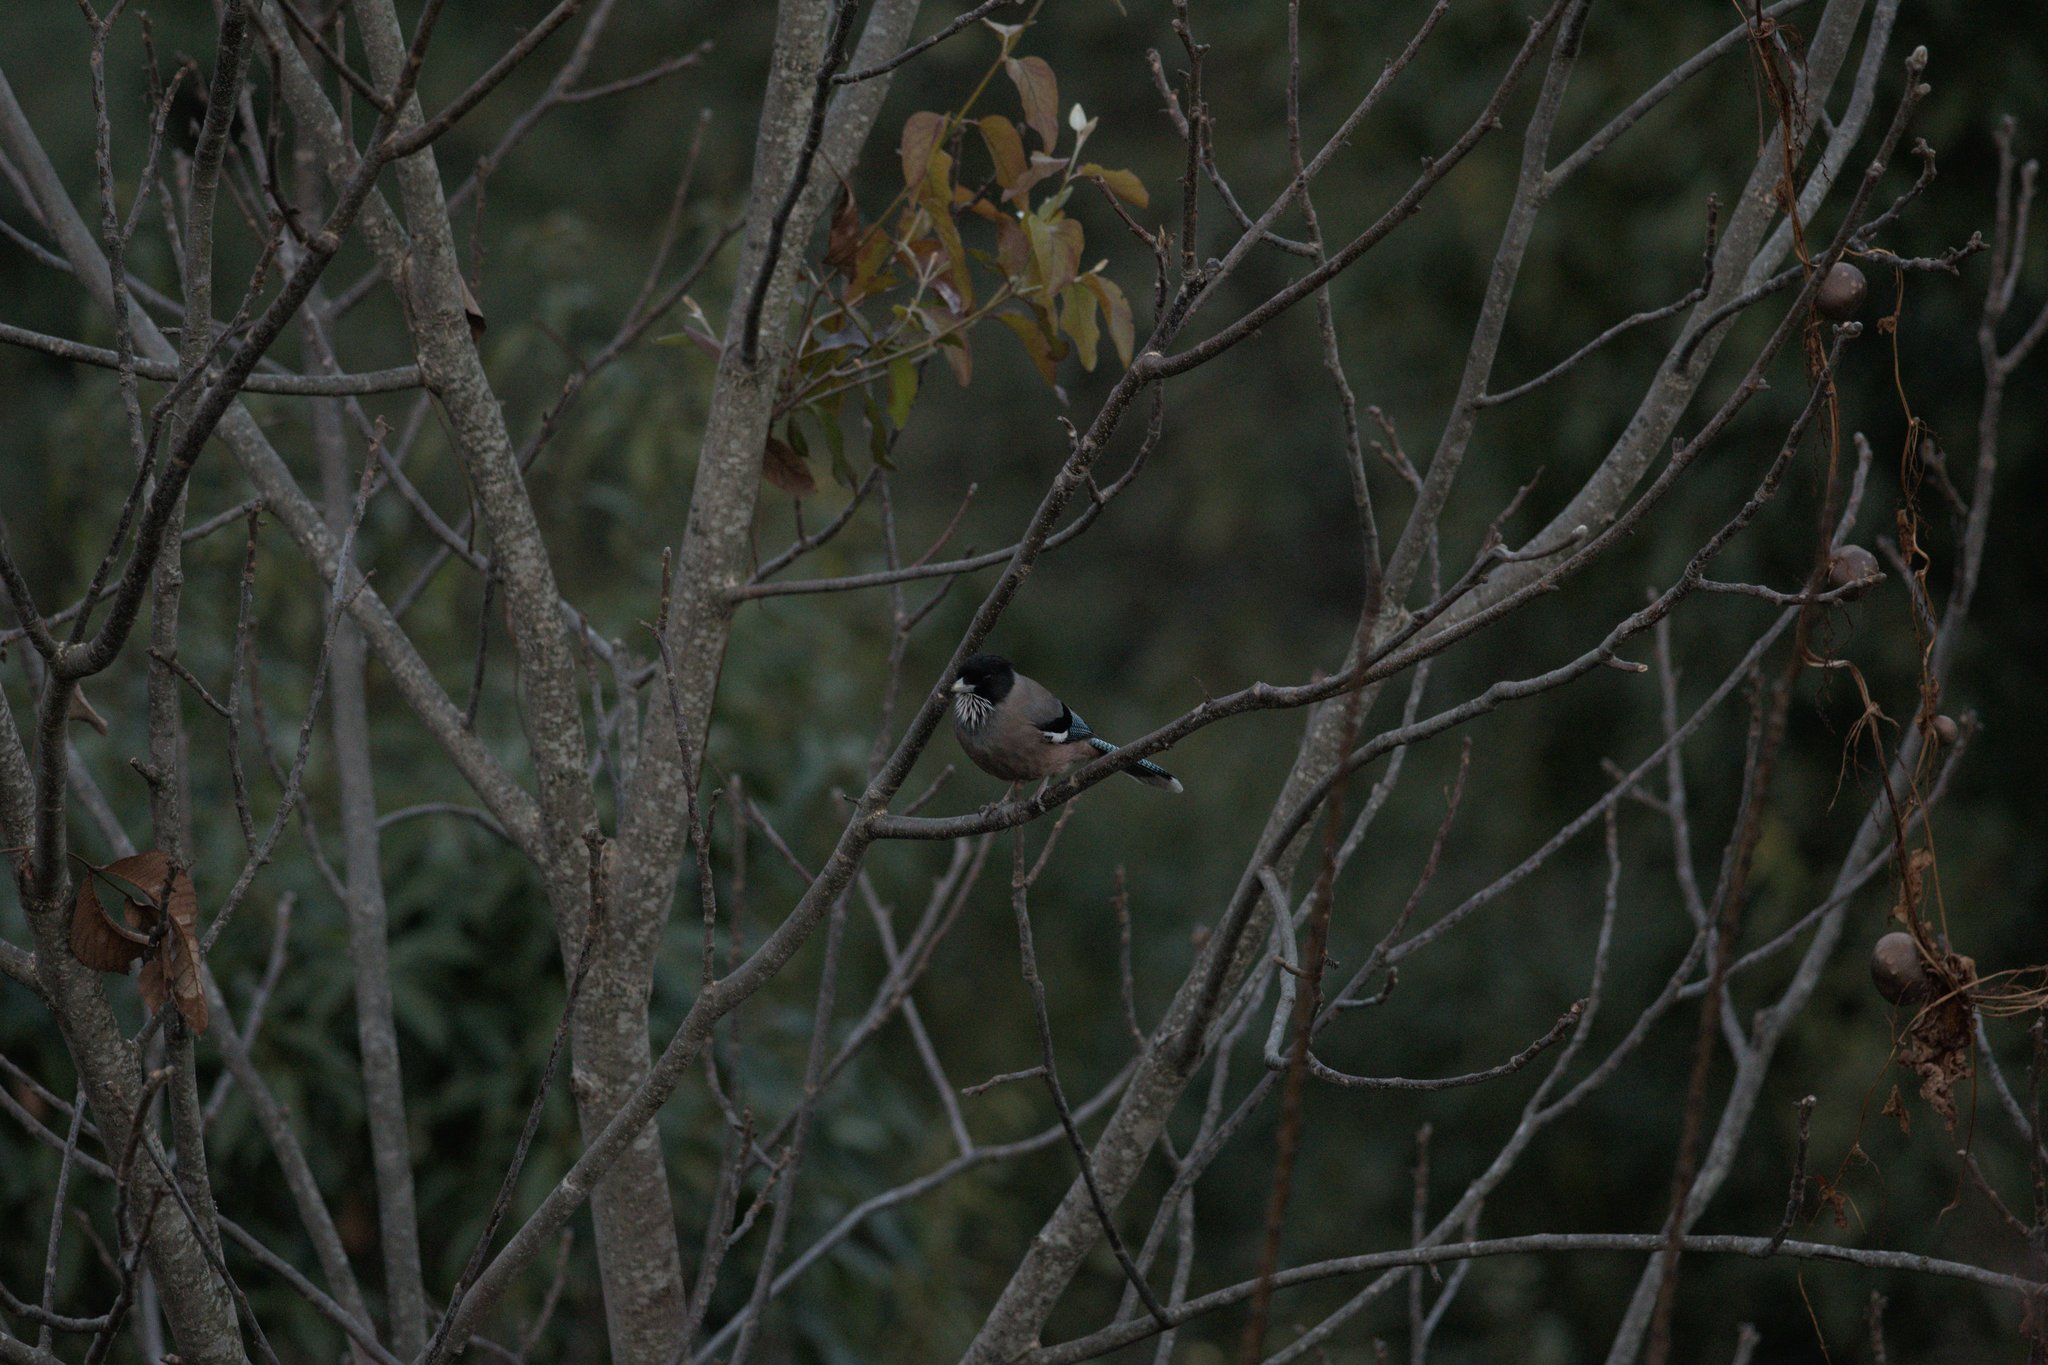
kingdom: Animalia
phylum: Chordata
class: Aves
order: Passeriformes
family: Corvidae
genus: Garrulus
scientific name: Garrulus lanceolatus
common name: Black-headed jay
